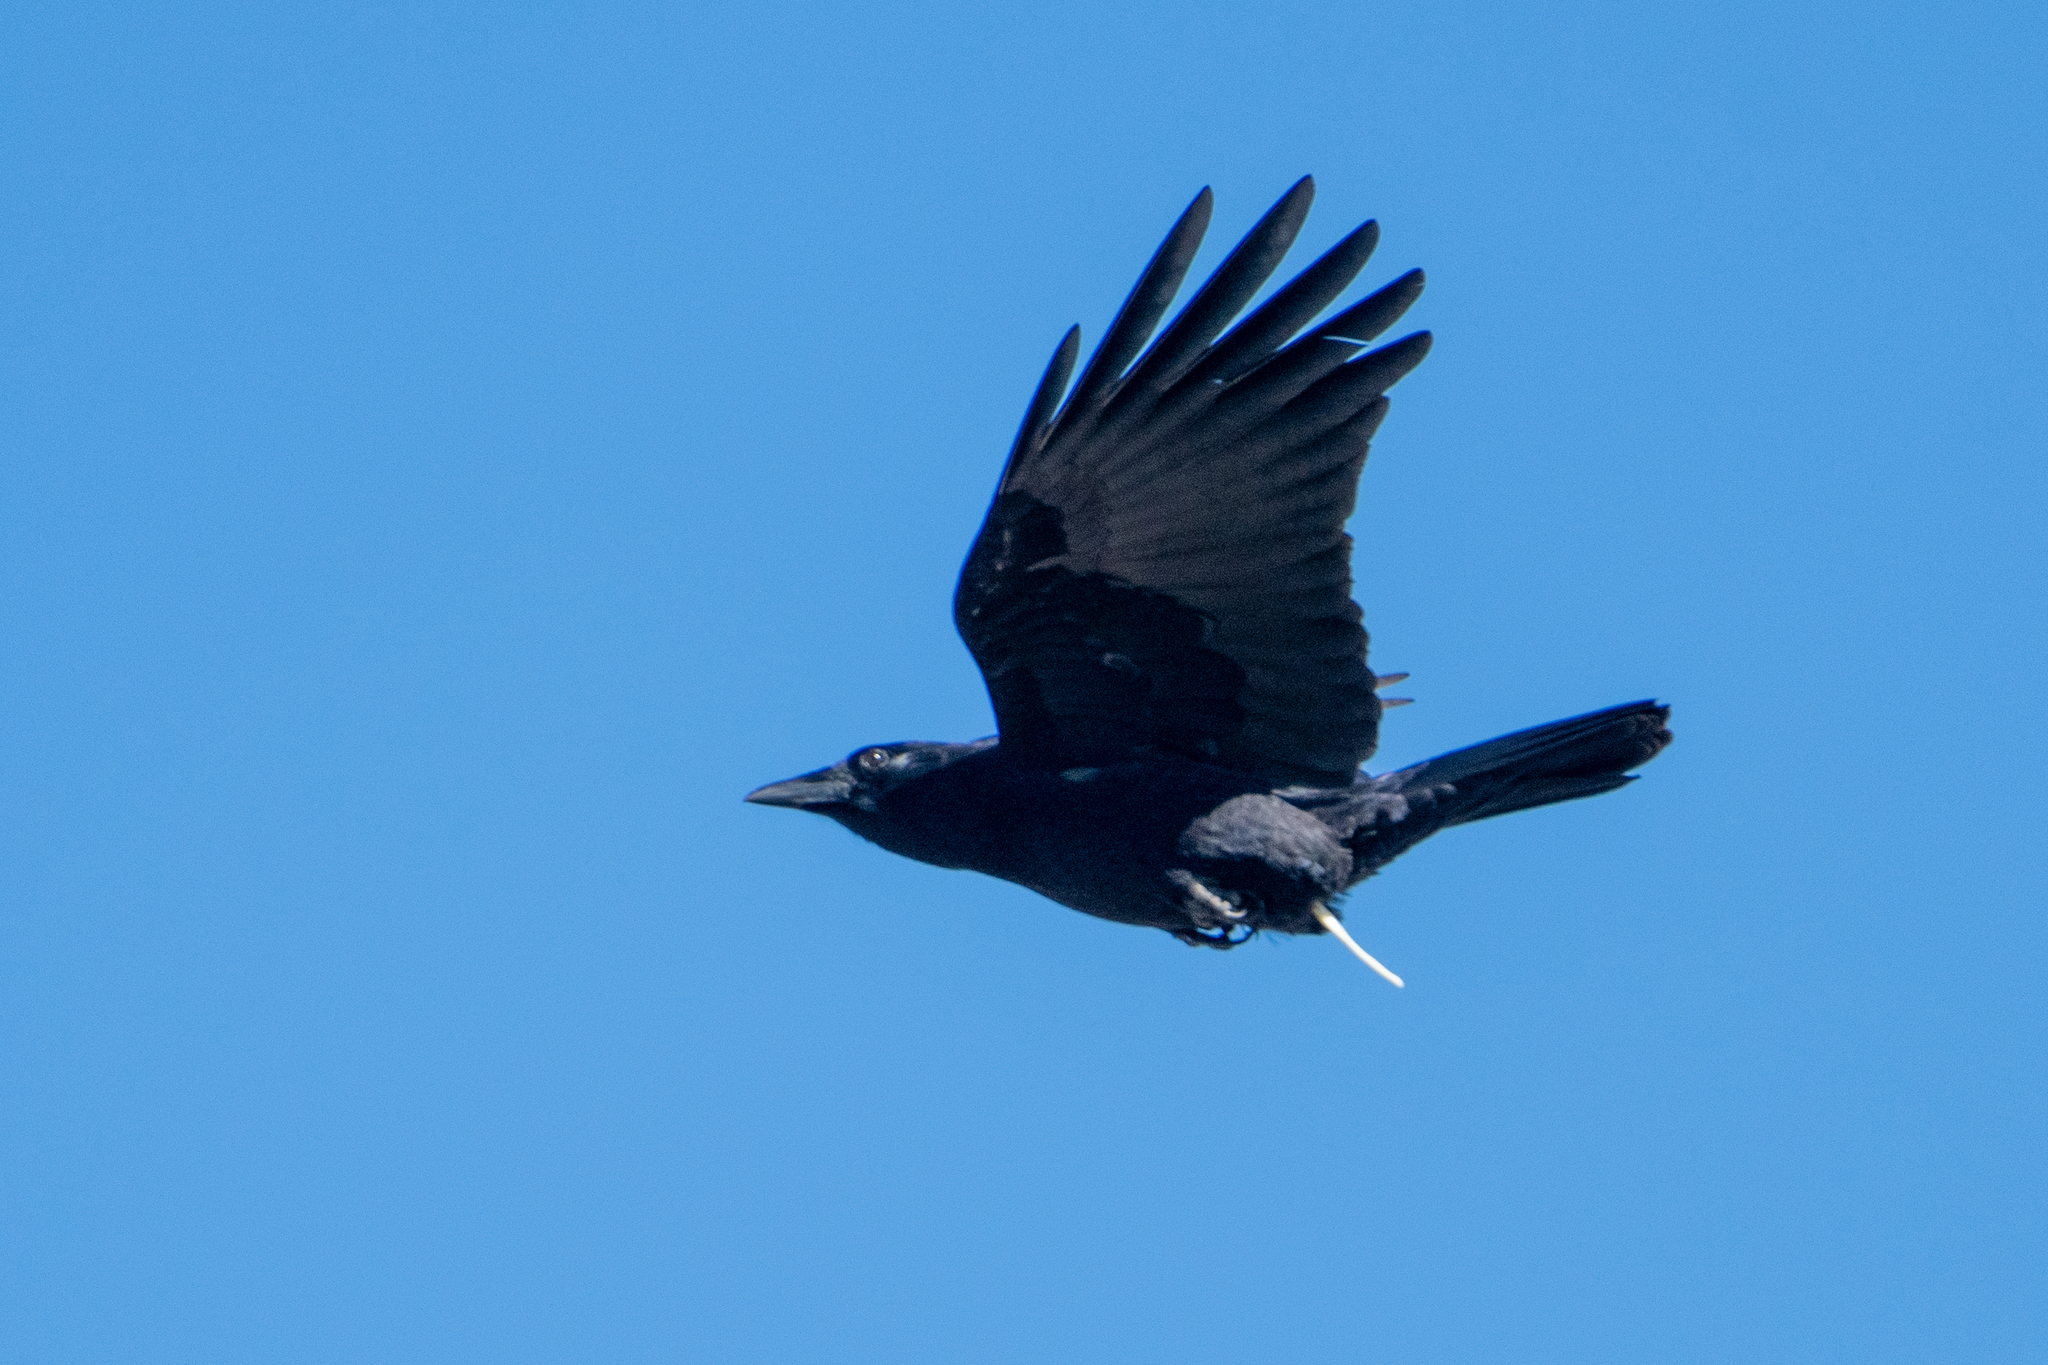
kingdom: Animalia
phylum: Chordata
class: Aves
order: Passeriformes
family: Corvidae
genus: Corvus
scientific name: Corvus brachyrhynchos
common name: American crow
